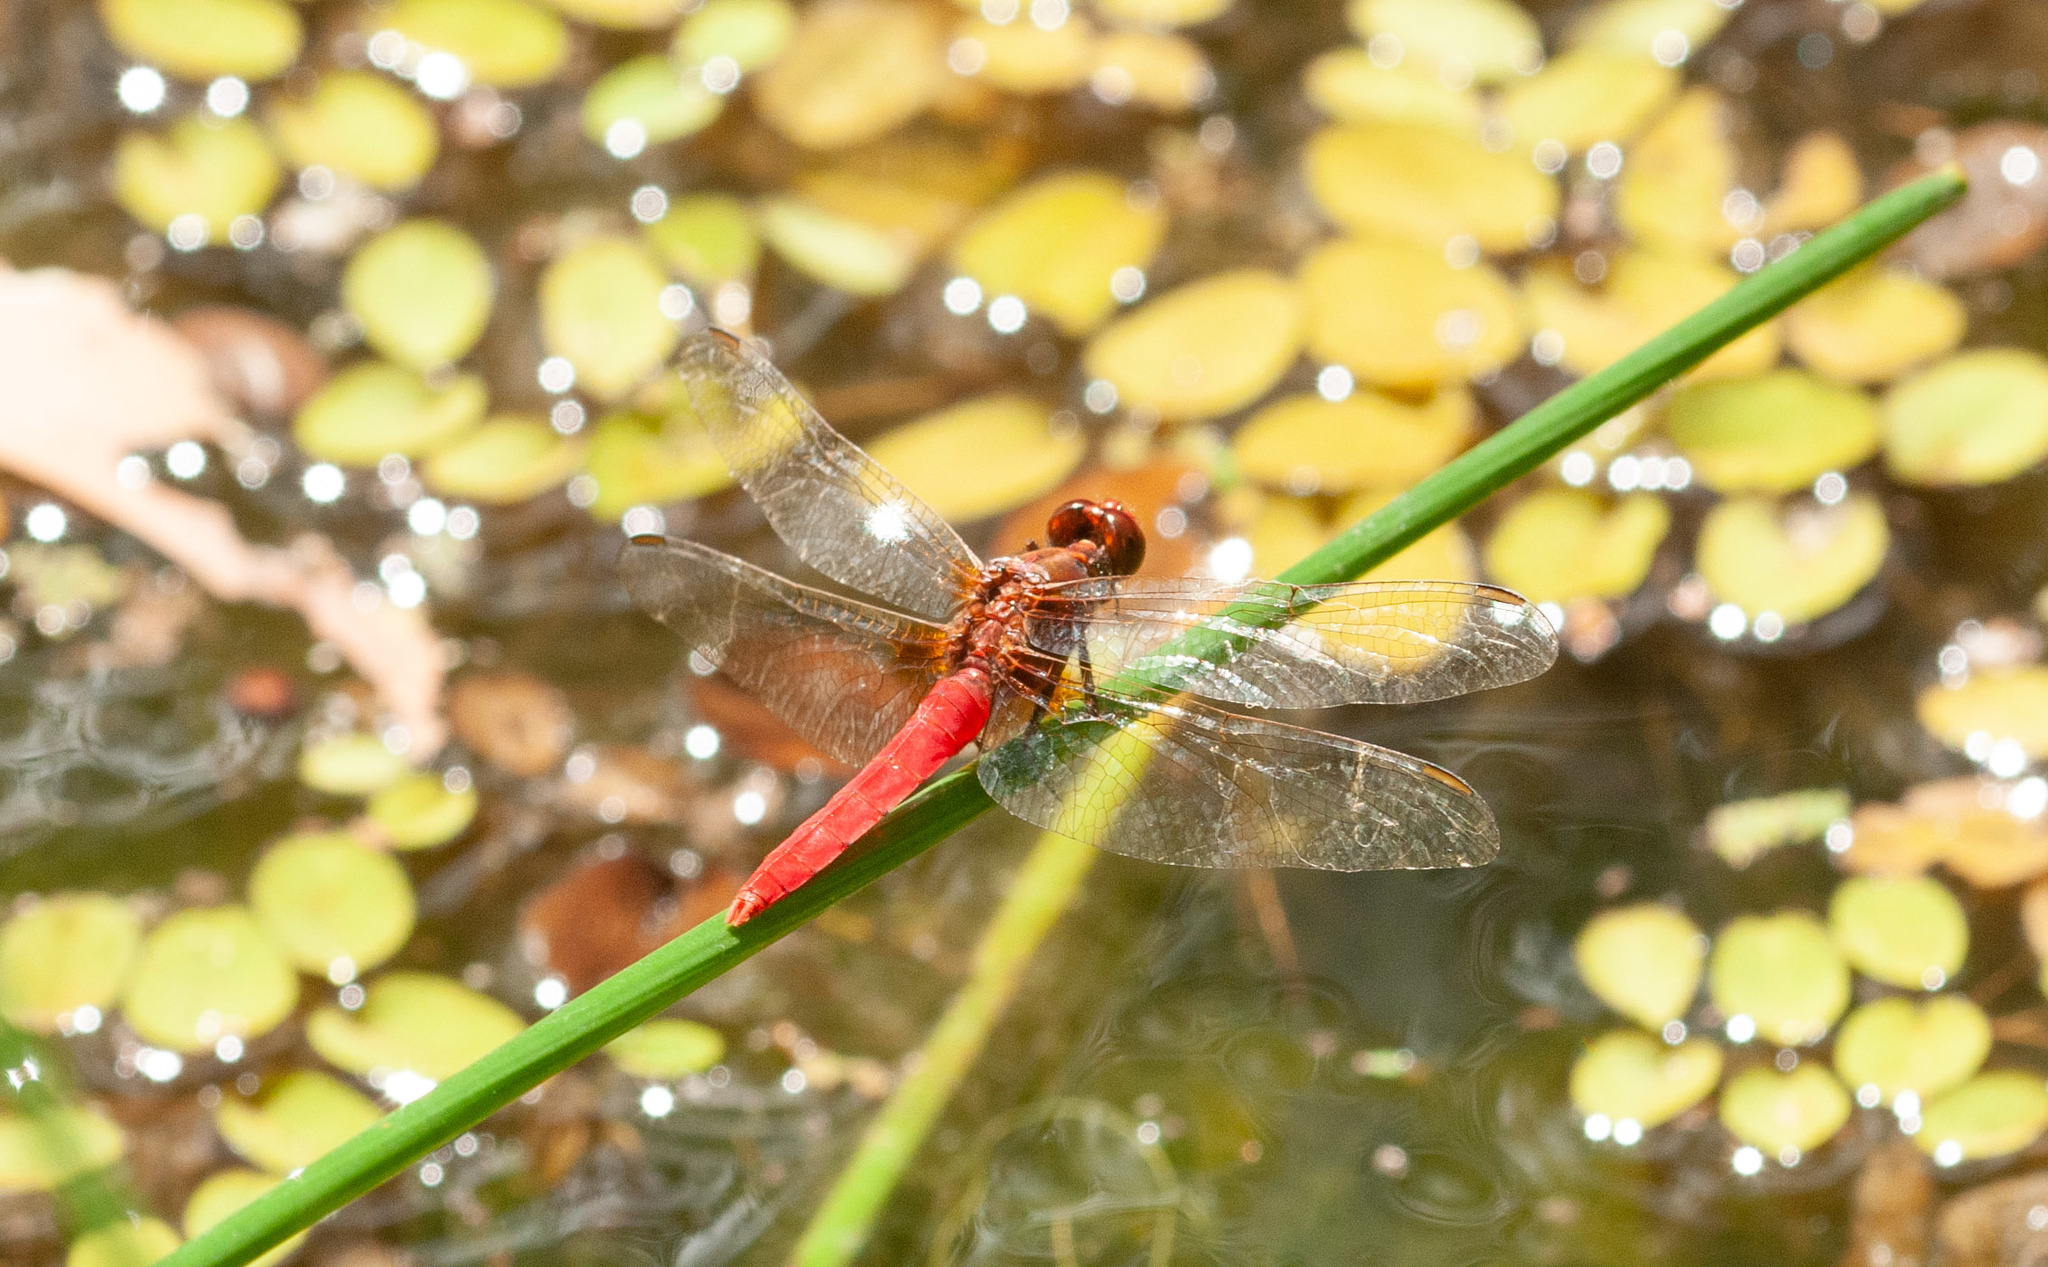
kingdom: Animalia
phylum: Arthropoda
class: Insecta
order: Odonata
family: Libellulidae
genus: Rhodothemis
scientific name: Rhodothemis lieftincki
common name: Red arrow
